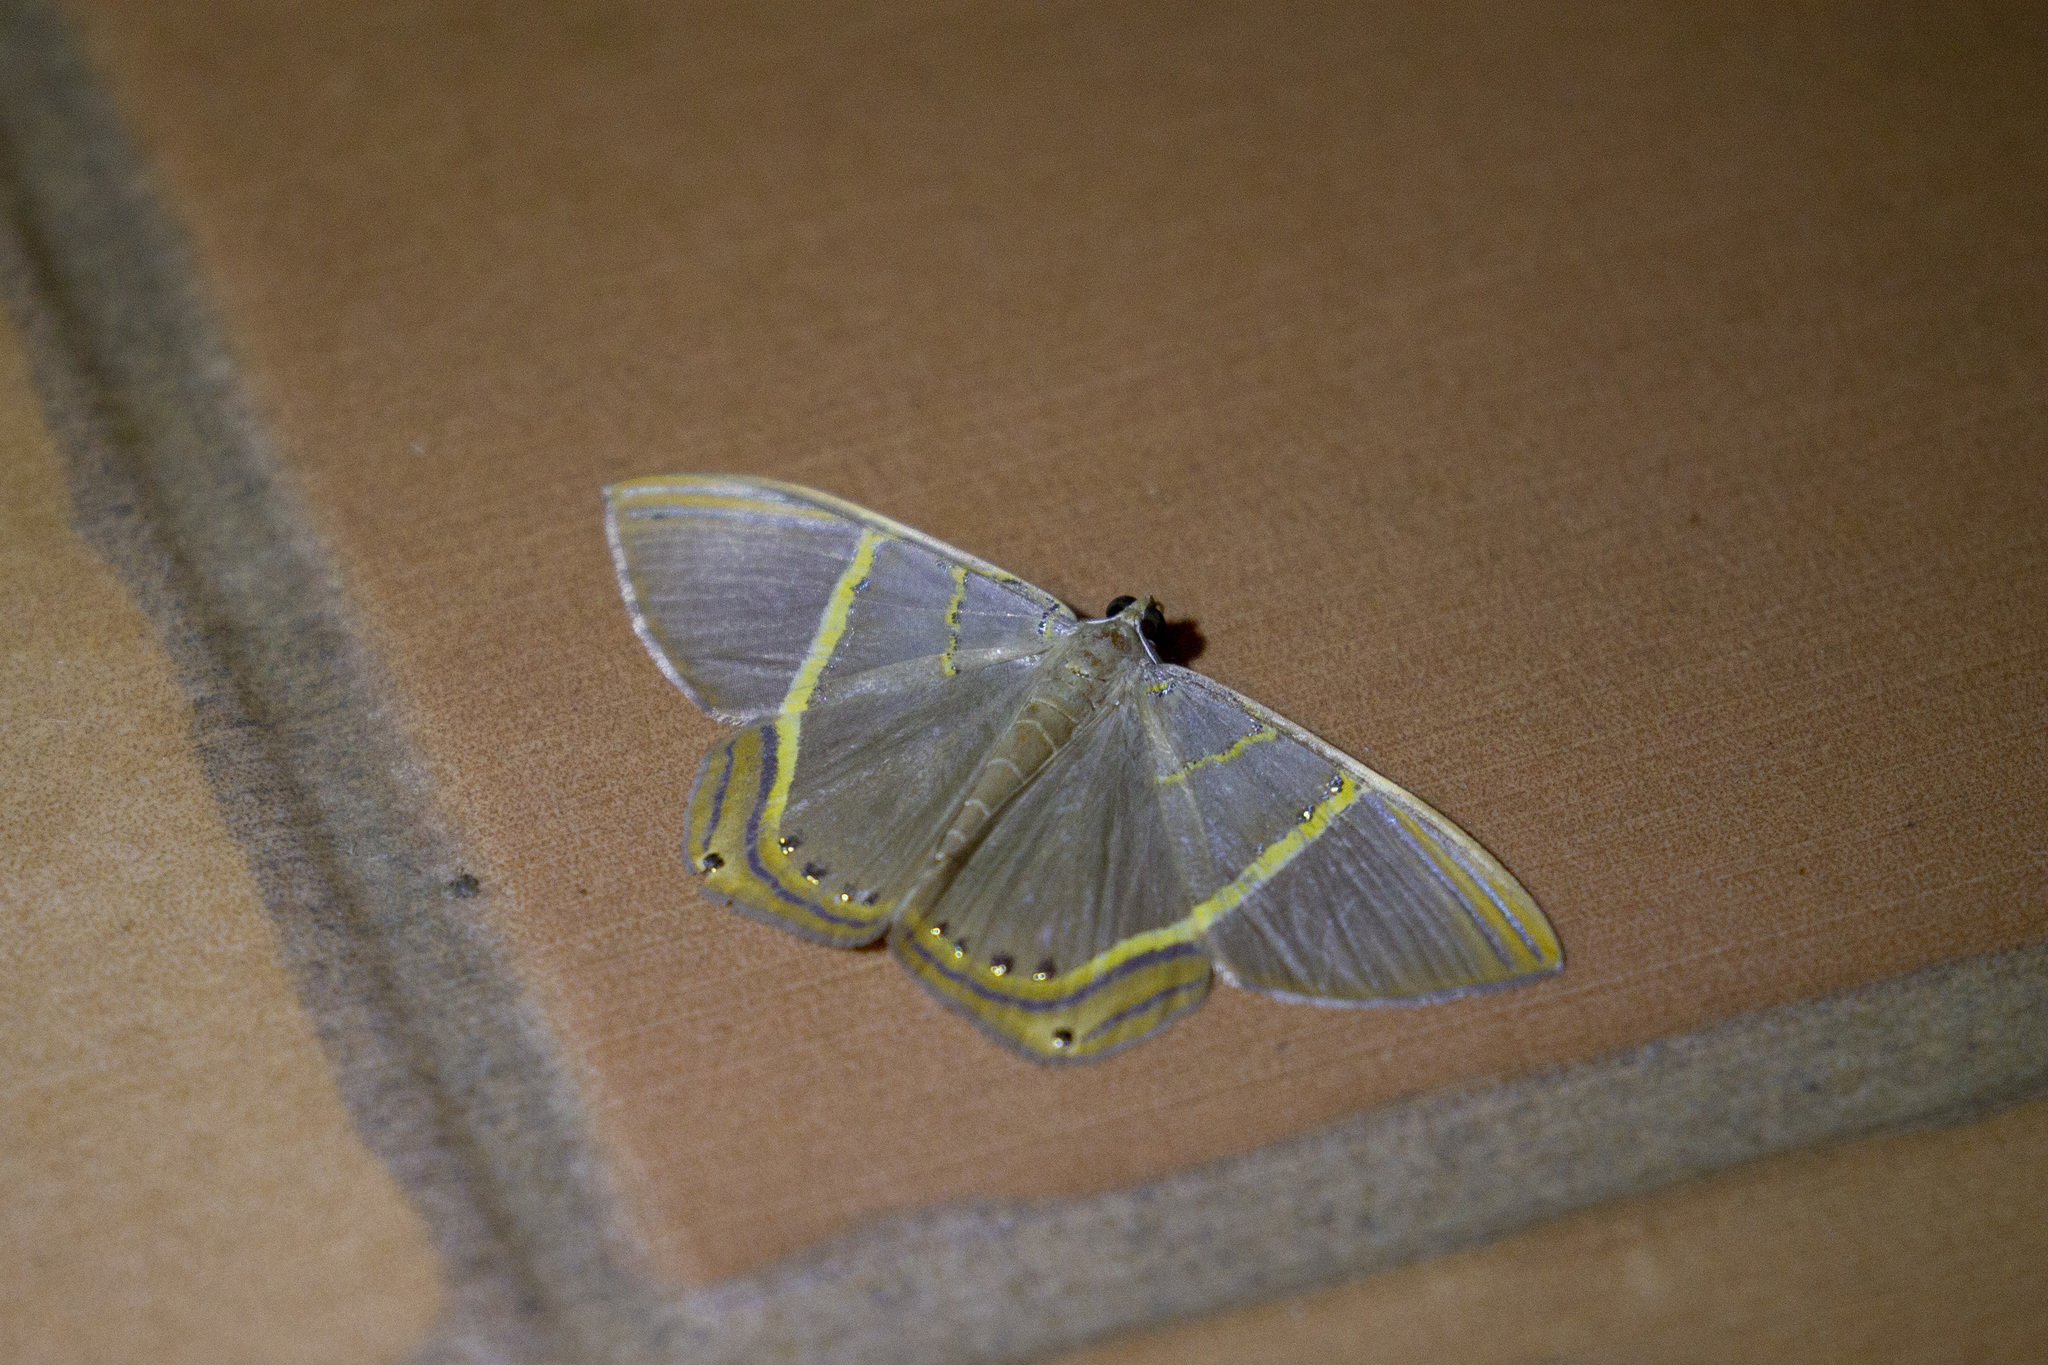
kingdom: Animalia
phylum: Arthropoda
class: Insecta
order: Lepidoptera
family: Geometridae
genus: Phrygionis
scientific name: Phrygionis polita
